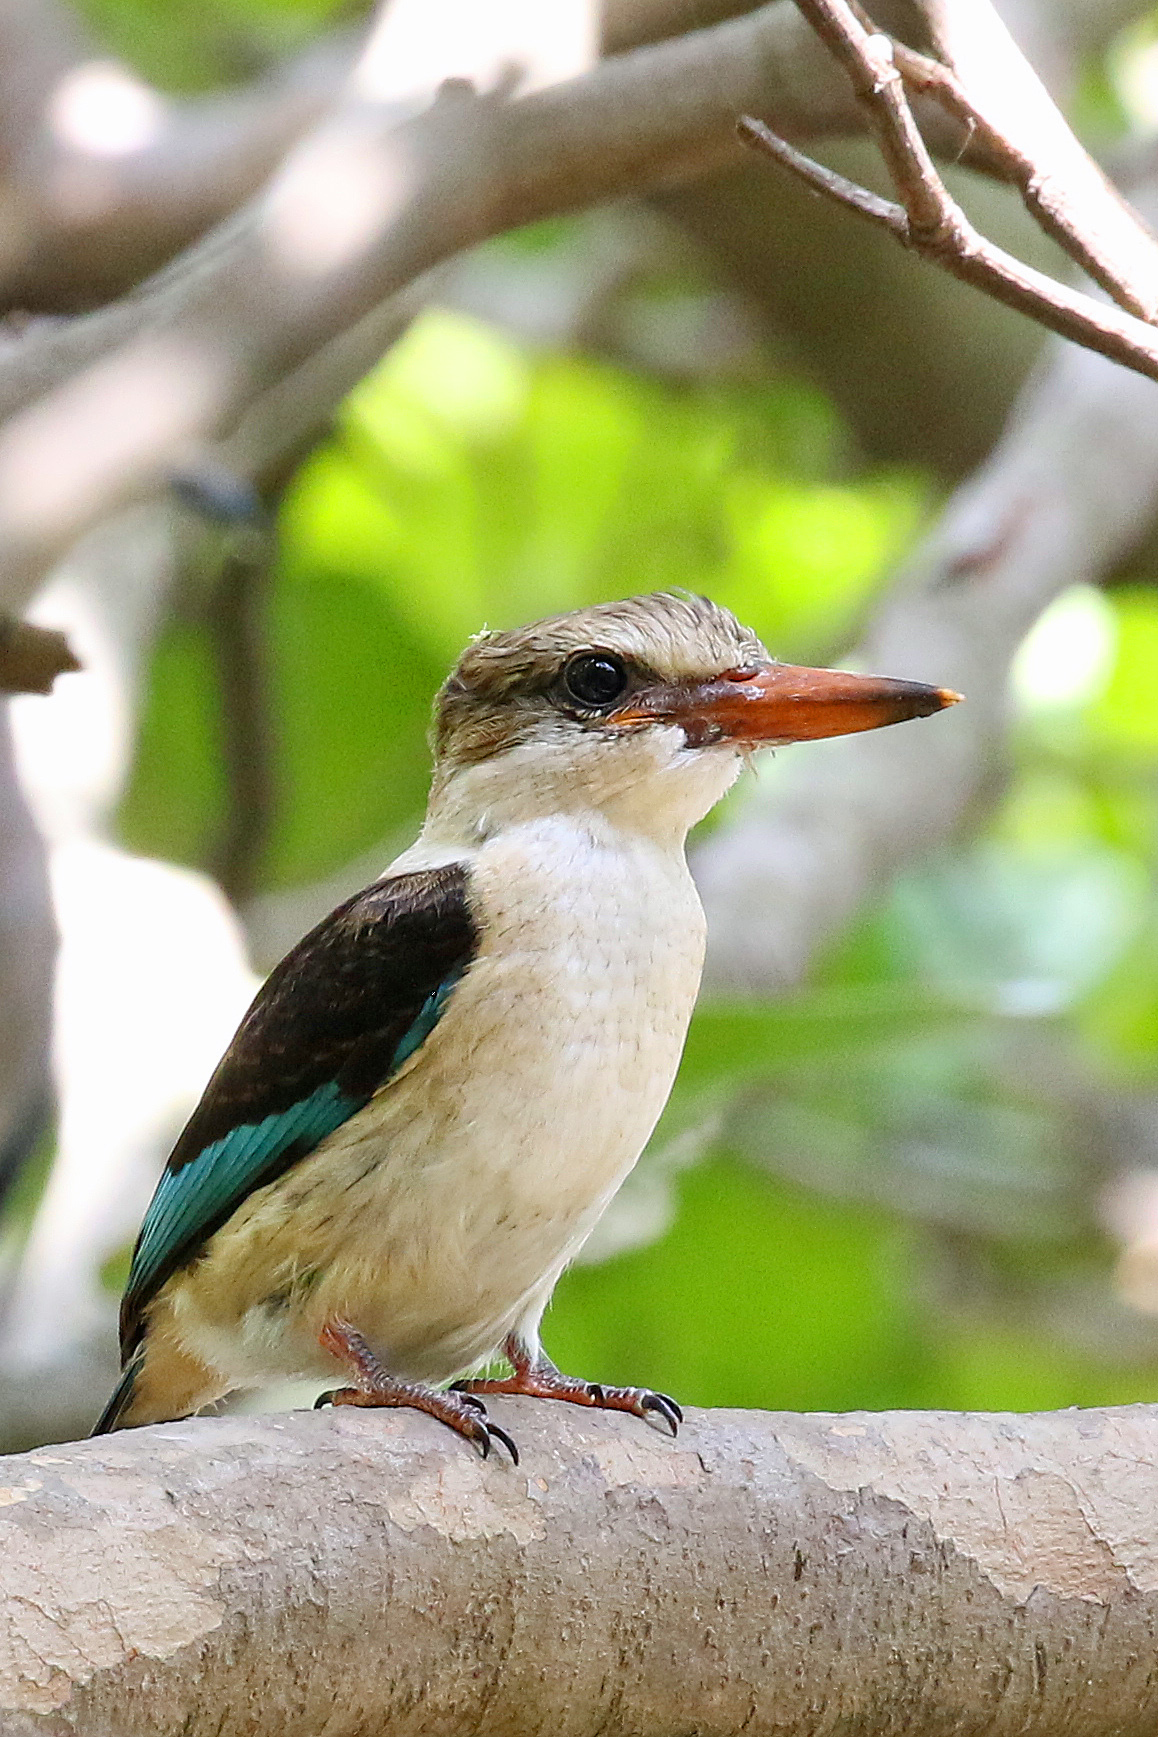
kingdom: Animalia
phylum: Chordata
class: Aves
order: Coraciiformes
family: Alcedinidae
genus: Halcyon
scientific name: Halcyon albiventris
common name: Brown-hooded kingfisher
